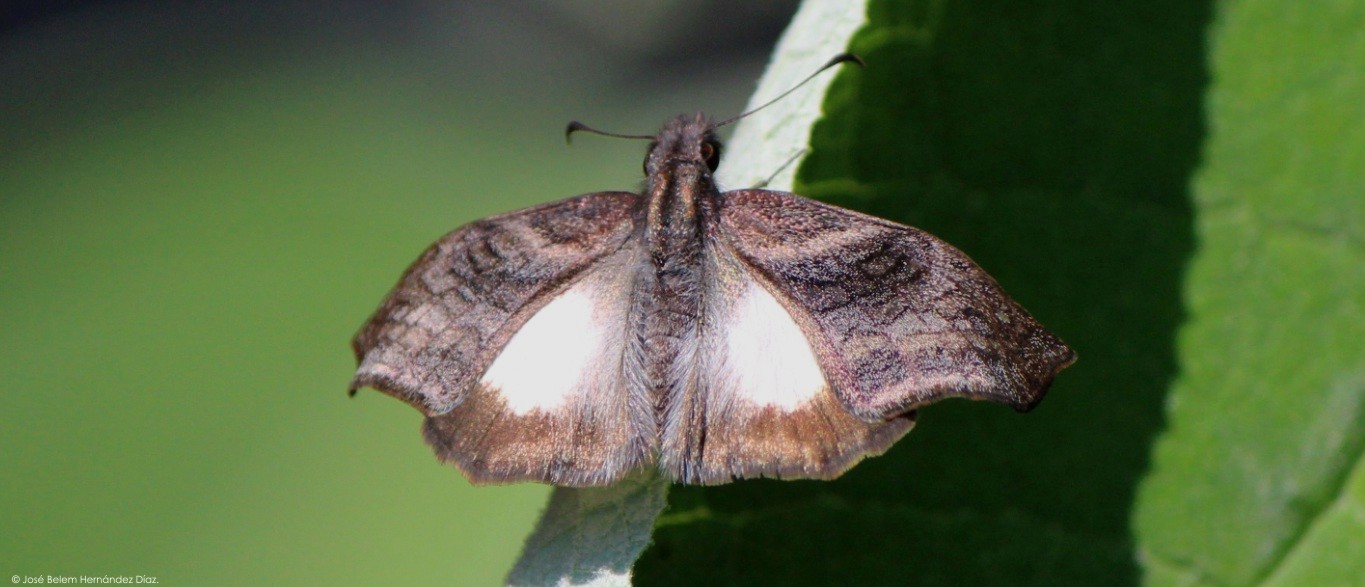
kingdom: Animalia
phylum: Arthropoda
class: Insecta
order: Lepidoptera
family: Hesperiidae
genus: Theagenes
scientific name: Theagenes
